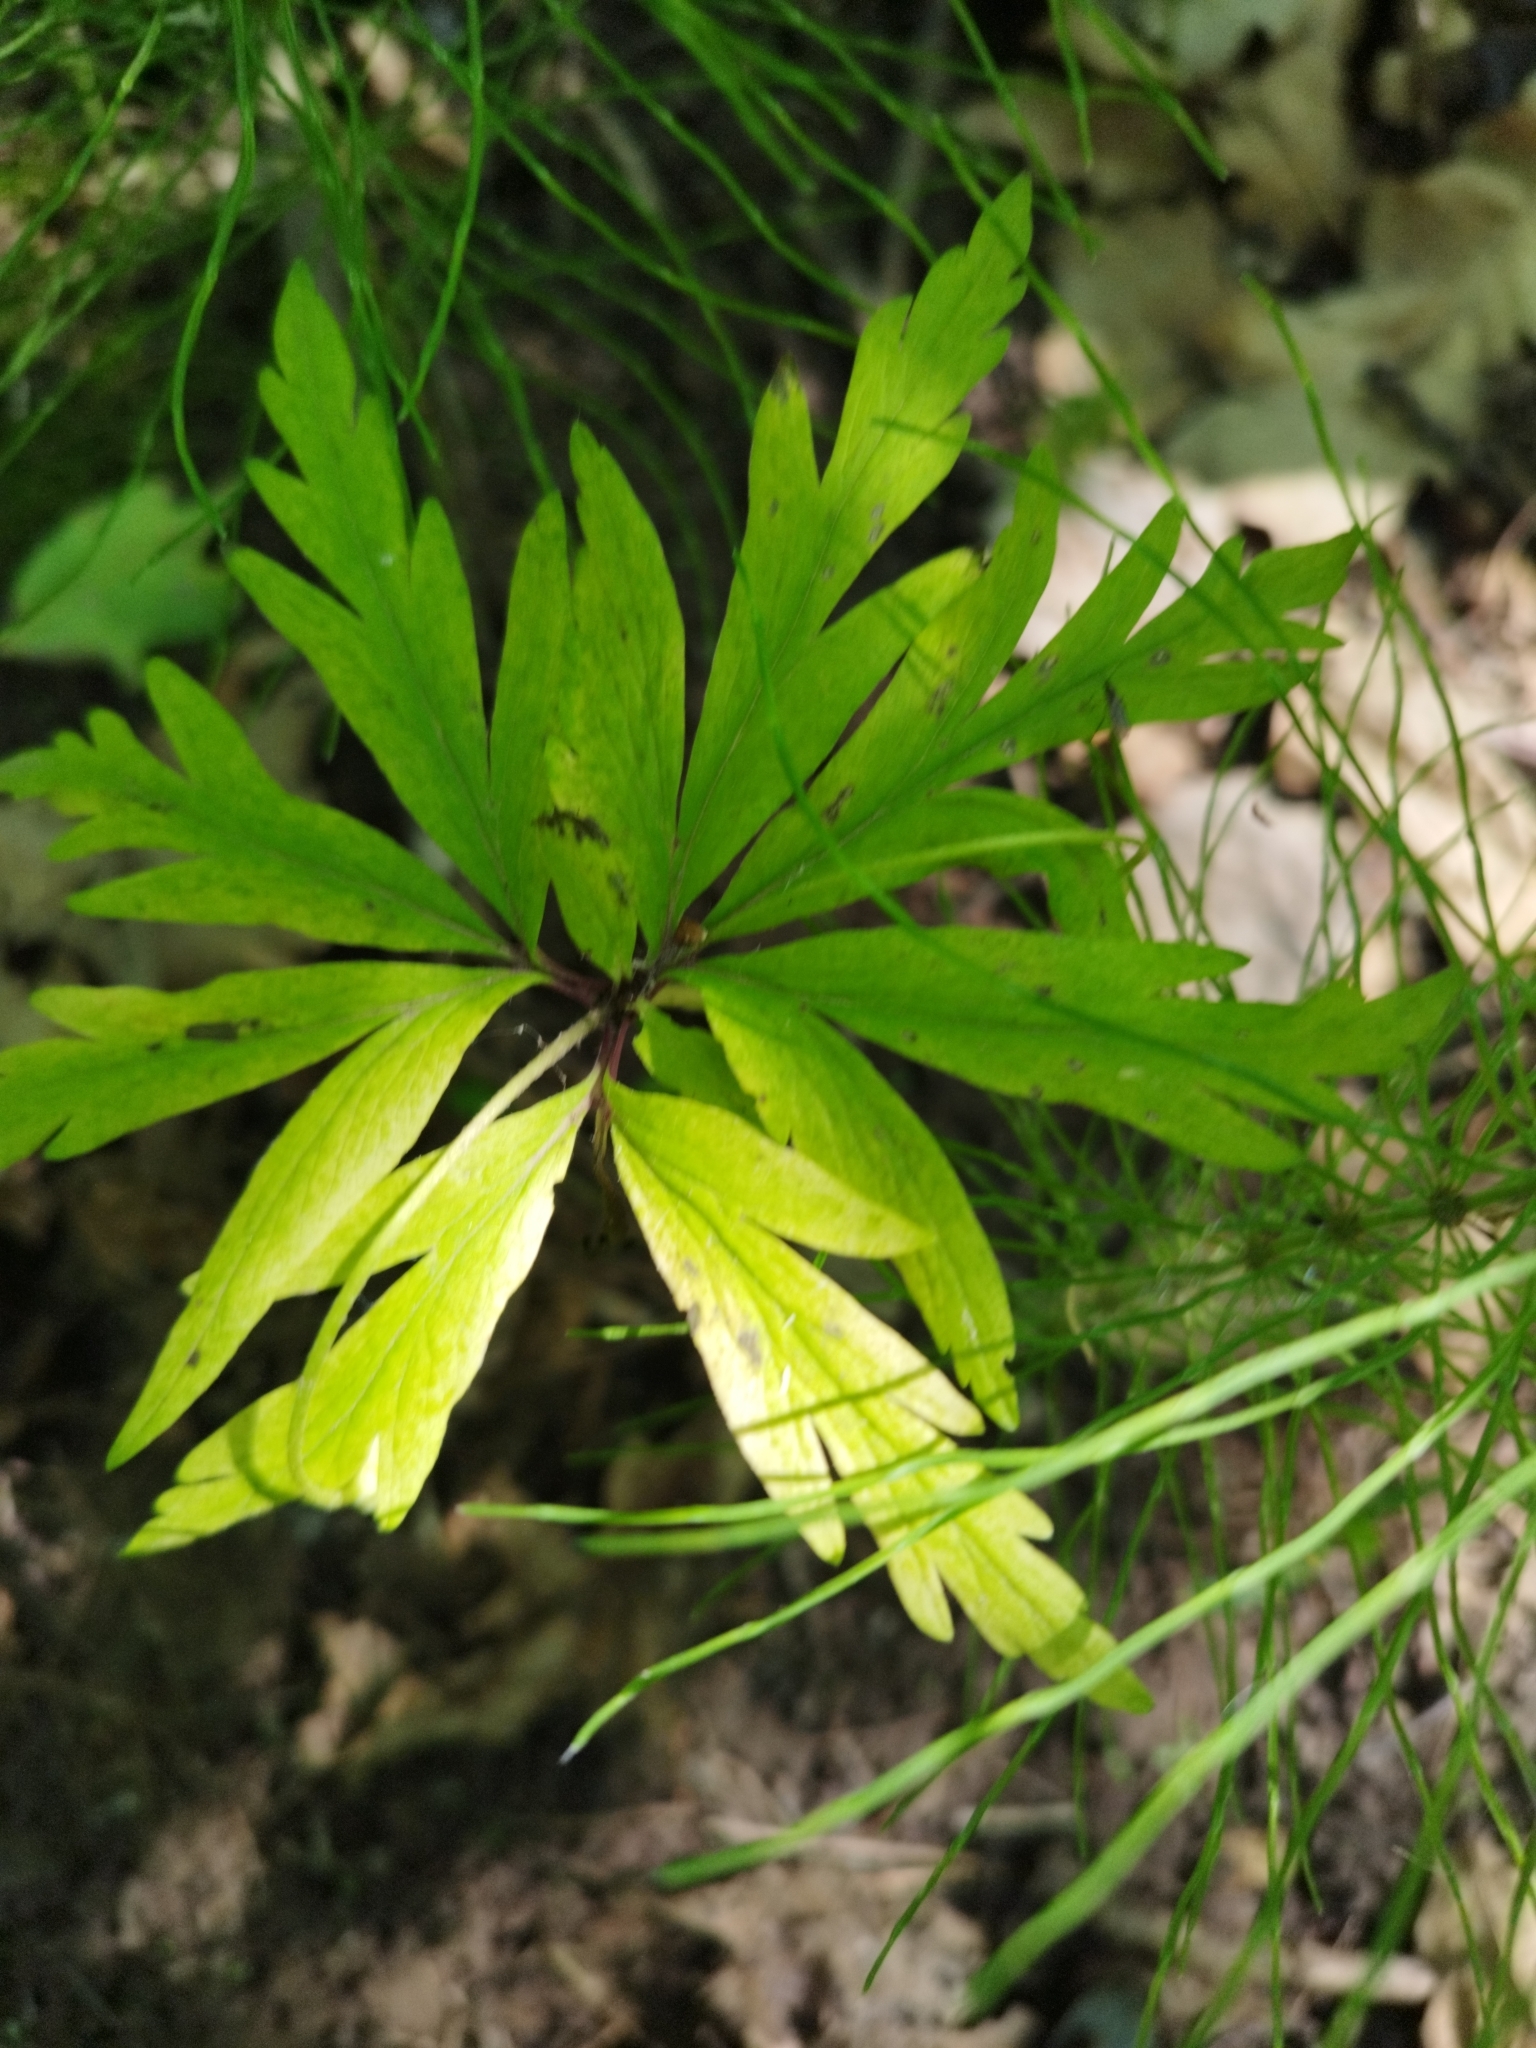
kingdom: Plantae
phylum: Tracheophyta
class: Magnoliopsida
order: Ranunculales
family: Ranunculaceae
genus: Anemone
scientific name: Anemone ranunculoides
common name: Yellow anemone
